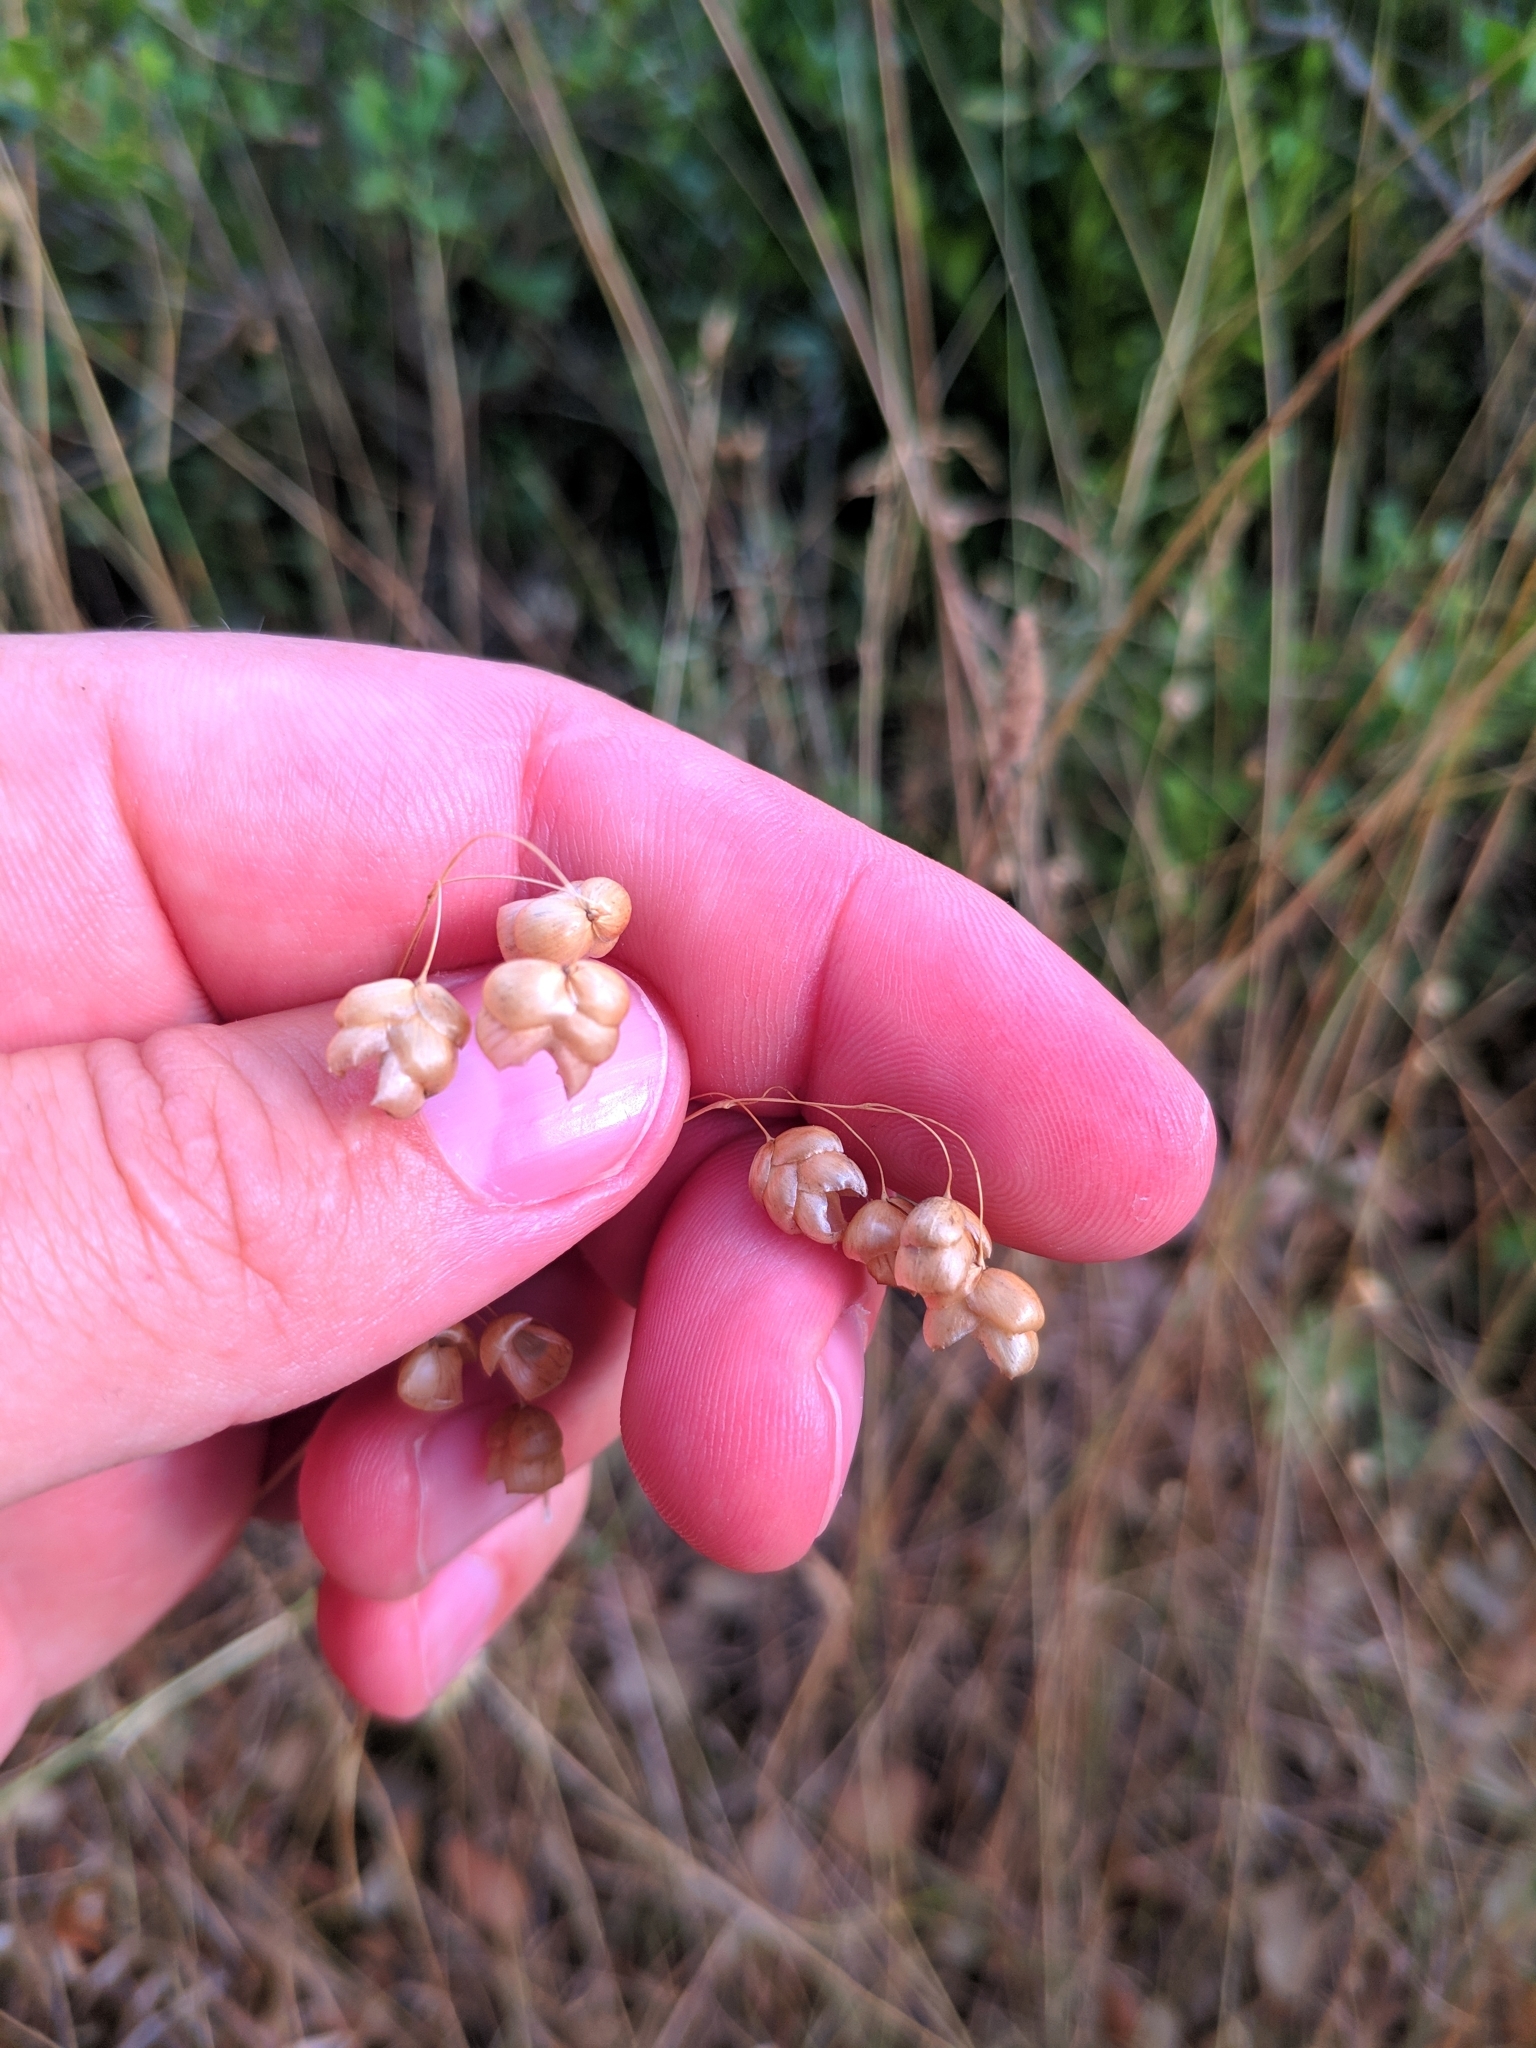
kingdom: Plantae
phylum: Tracheophyta
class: Liliopsida
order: Poales
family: Poaceae
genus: Briza
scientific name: Briza maxima
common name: Big quakinggrass
